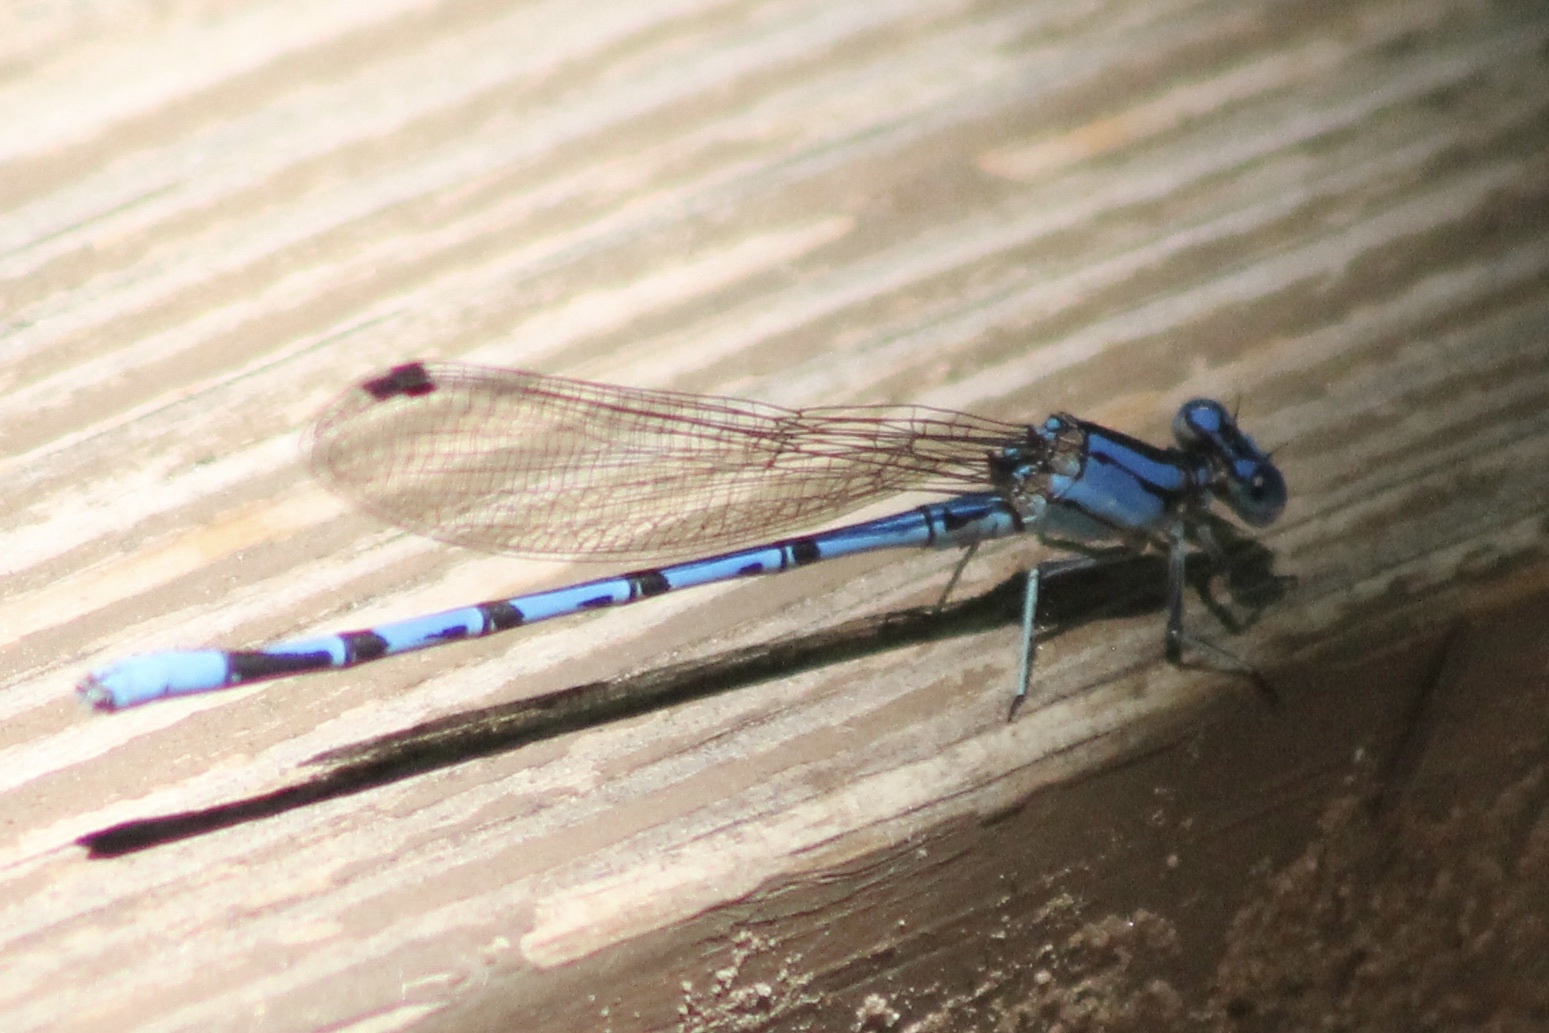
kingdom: Animalia
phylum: Arthropoda
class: Insecta
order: Odonata
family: Coenagrionidae
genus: Argia
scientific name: Argia funebris
